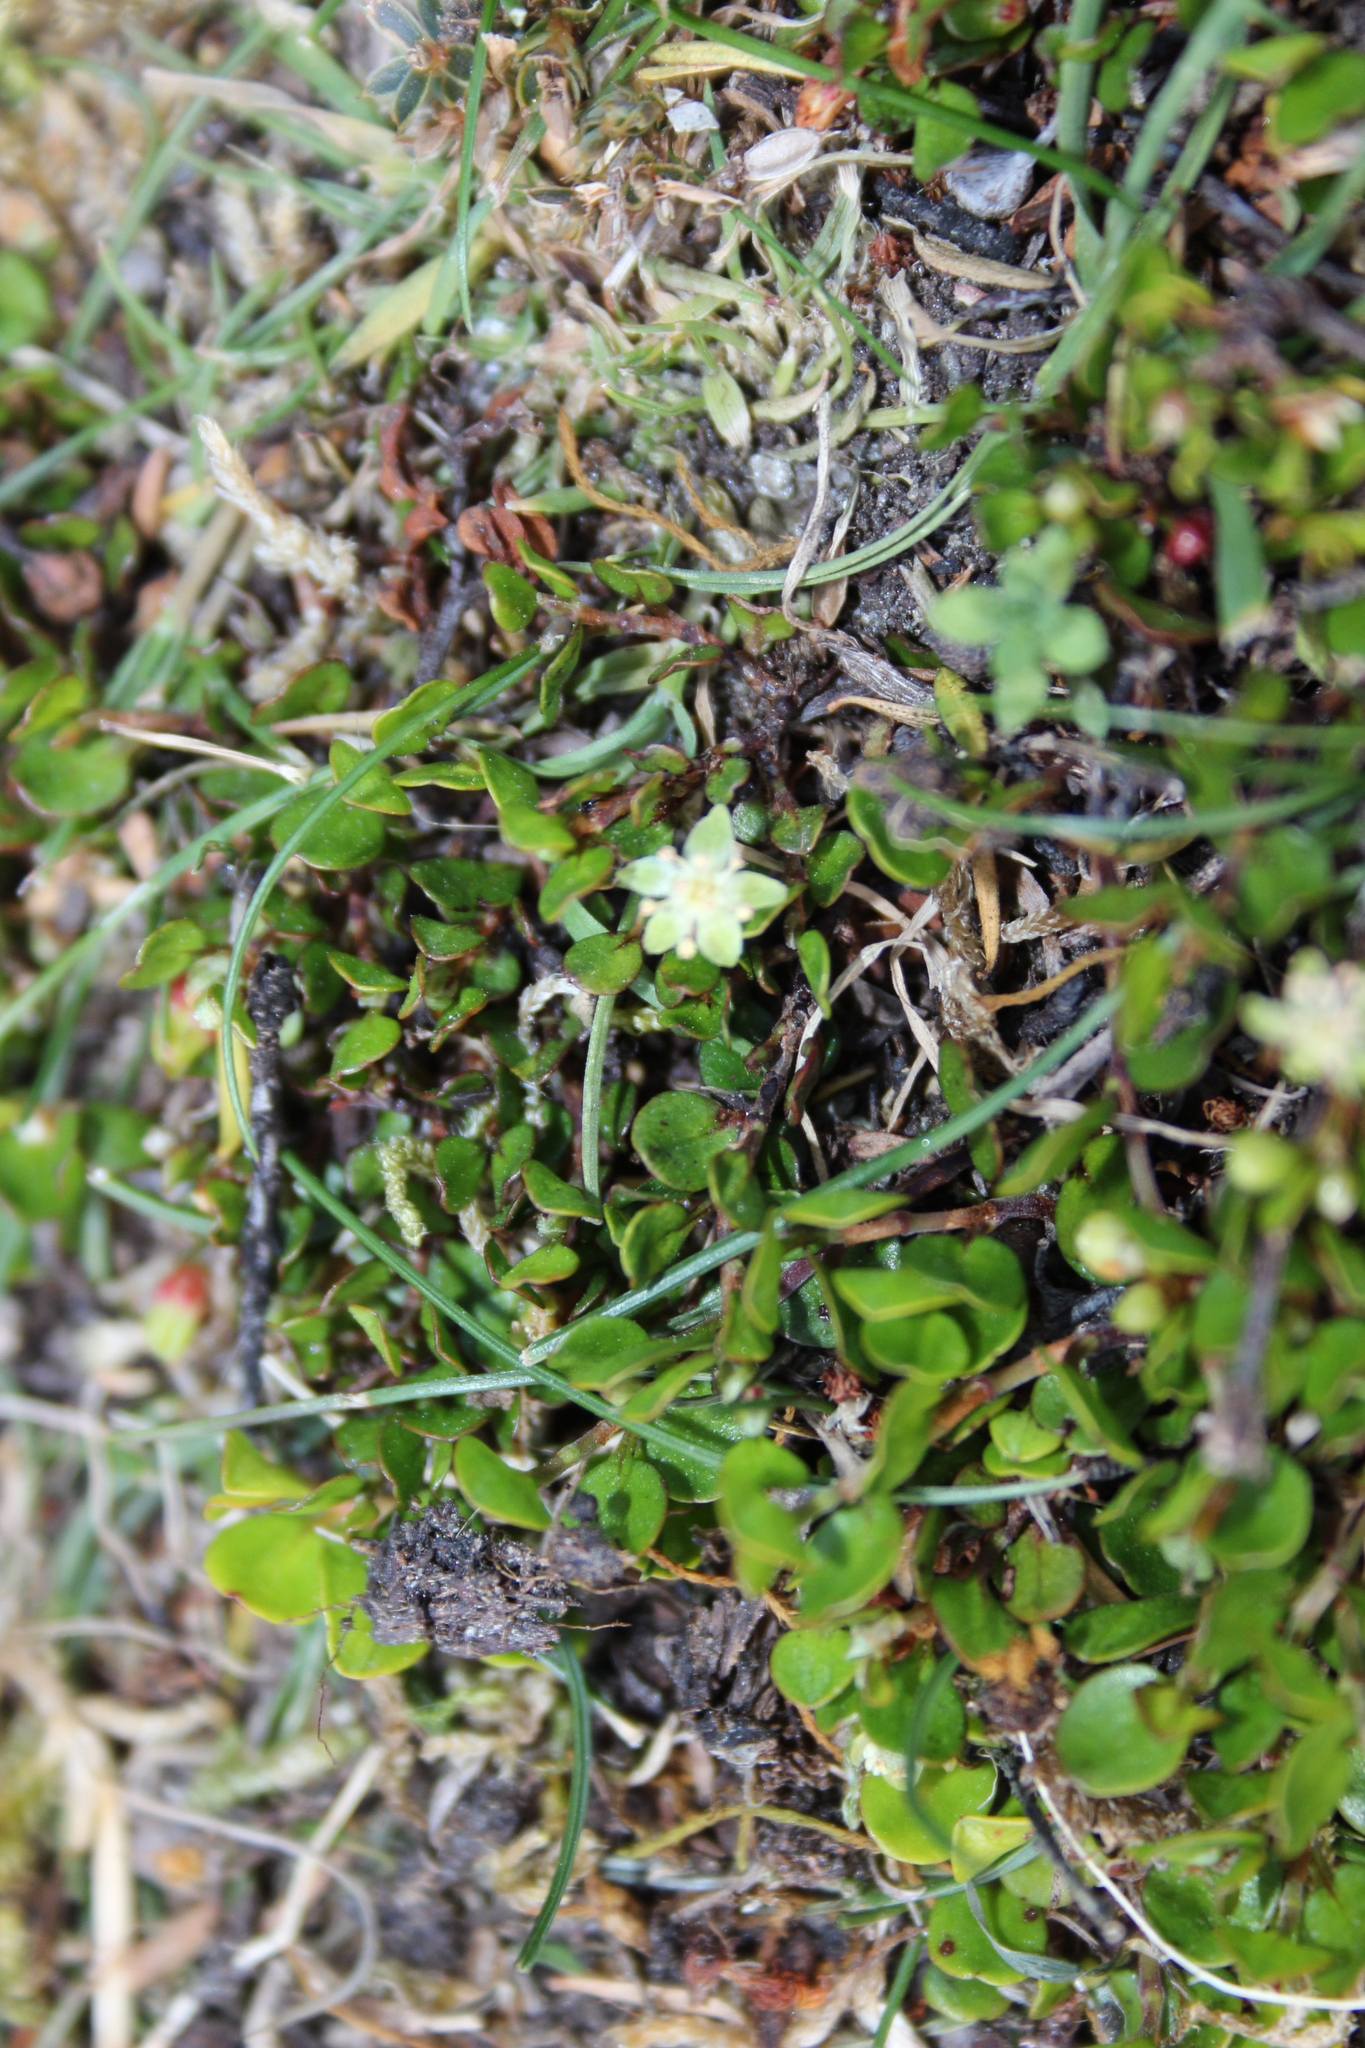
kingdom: Plantae
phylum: Tracheophyta
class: Magnoliopsida
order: Caryophyllales
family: Polygonaceae
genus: Muehlenbeckia
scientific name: Muehlenbeckia axillaris
